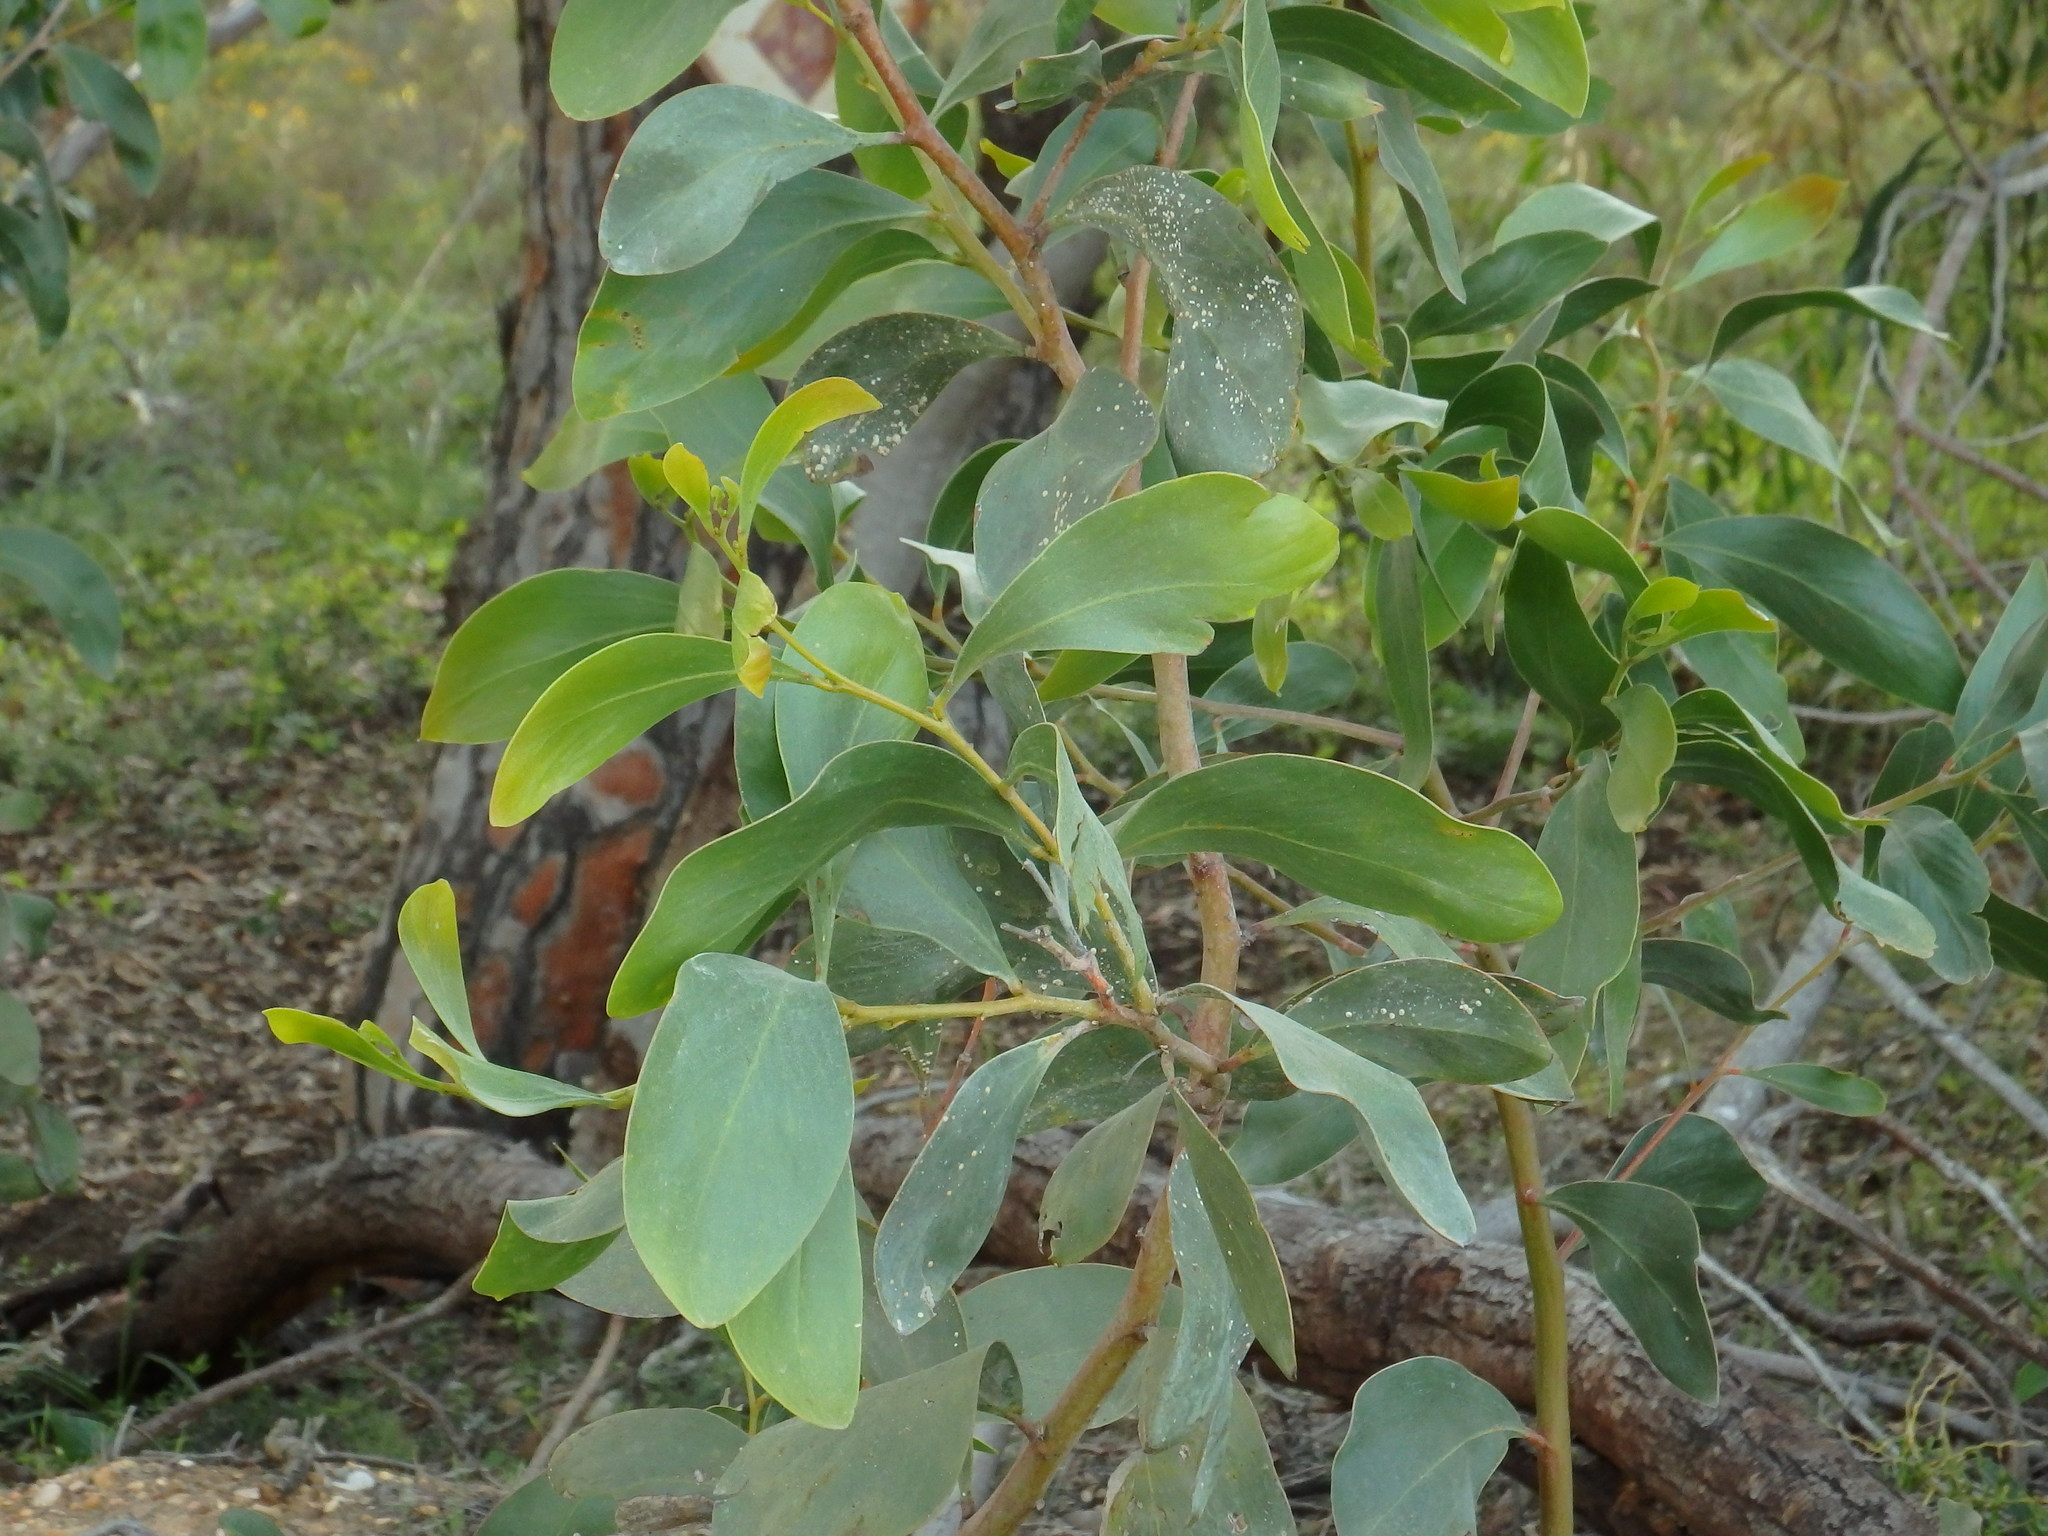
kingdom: Plantae
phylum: Tracheophyta
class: Magnoliopsida
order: Fabales
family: Fabaceae
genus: Acacia
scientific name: Acacia pycnantha
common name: Golden wattle
